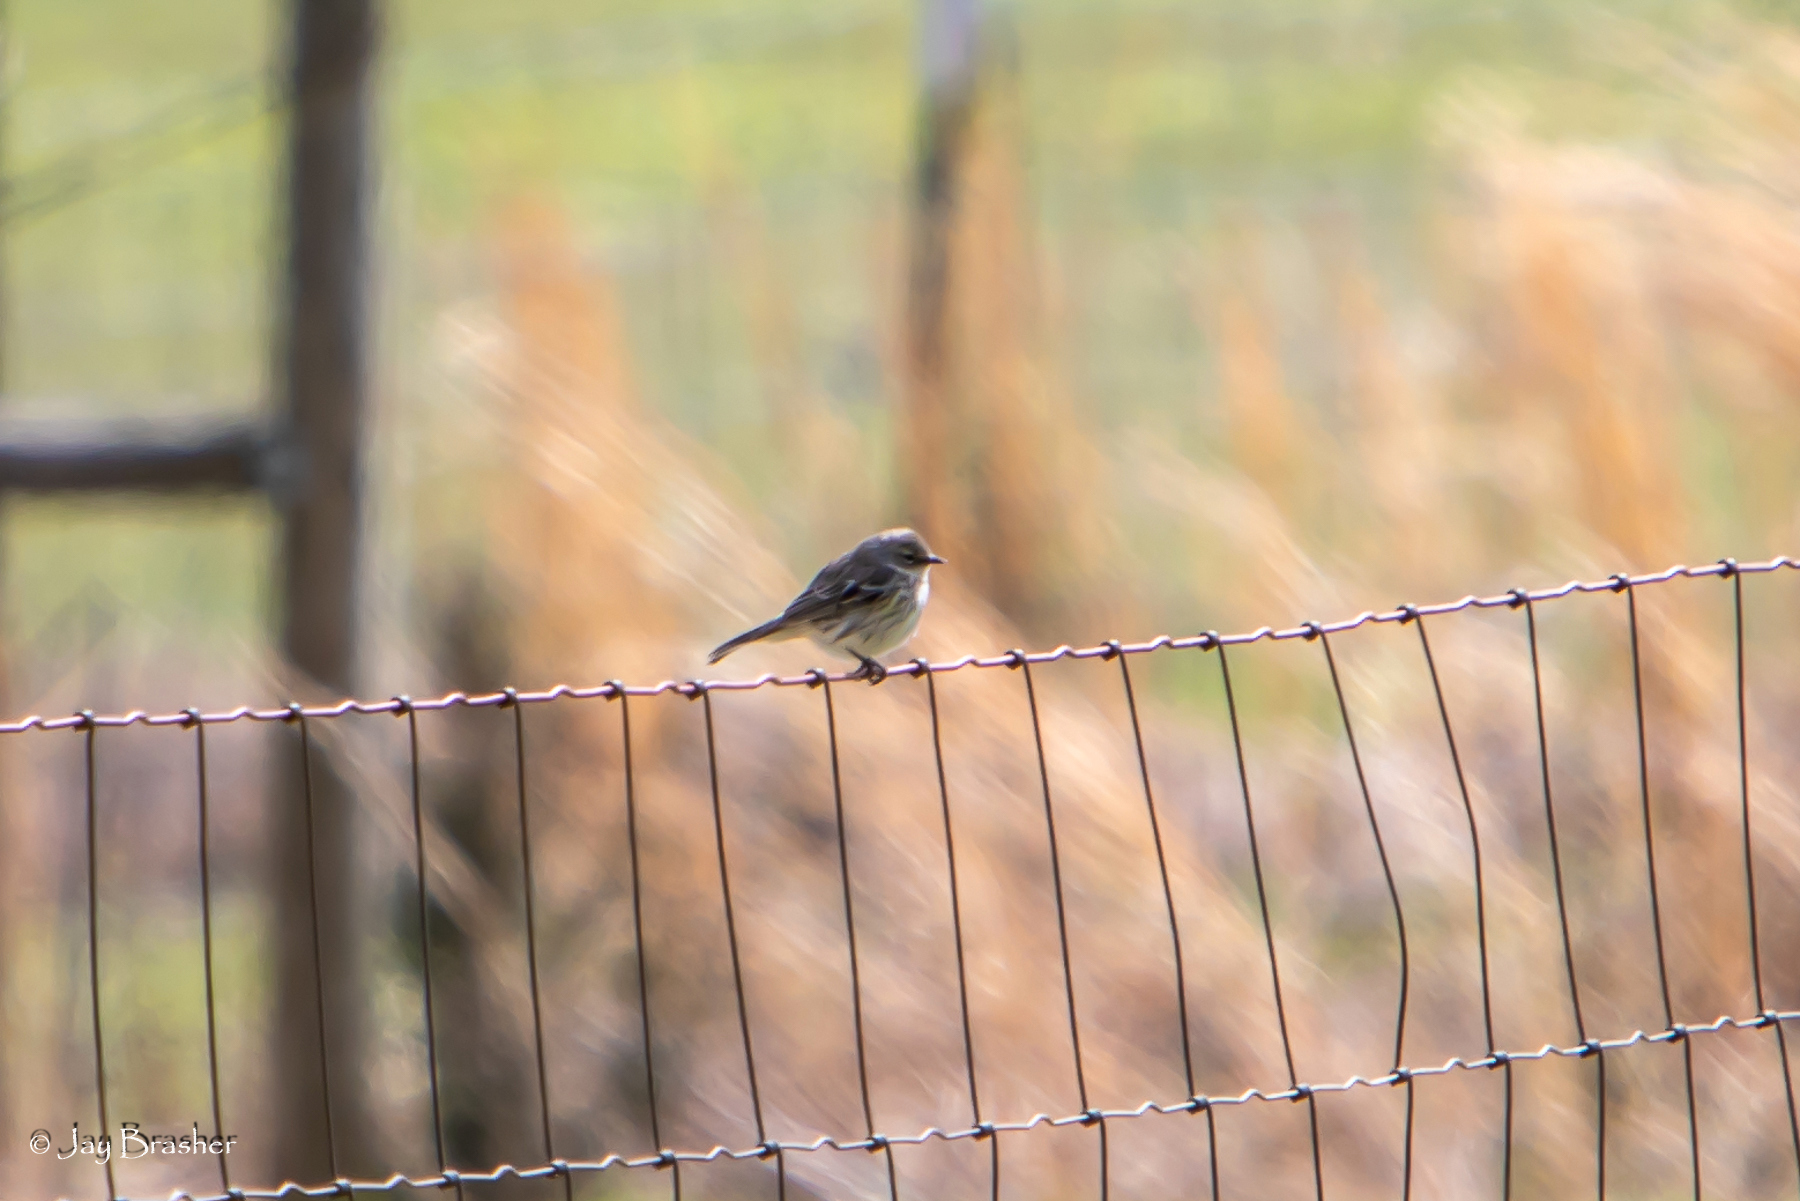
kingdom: Animalia
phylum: Chordata
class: Aves
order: Passeriformes
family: Parulidae
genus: Setophaga
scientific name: Setophaga coronata
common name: Myrtle warbler
